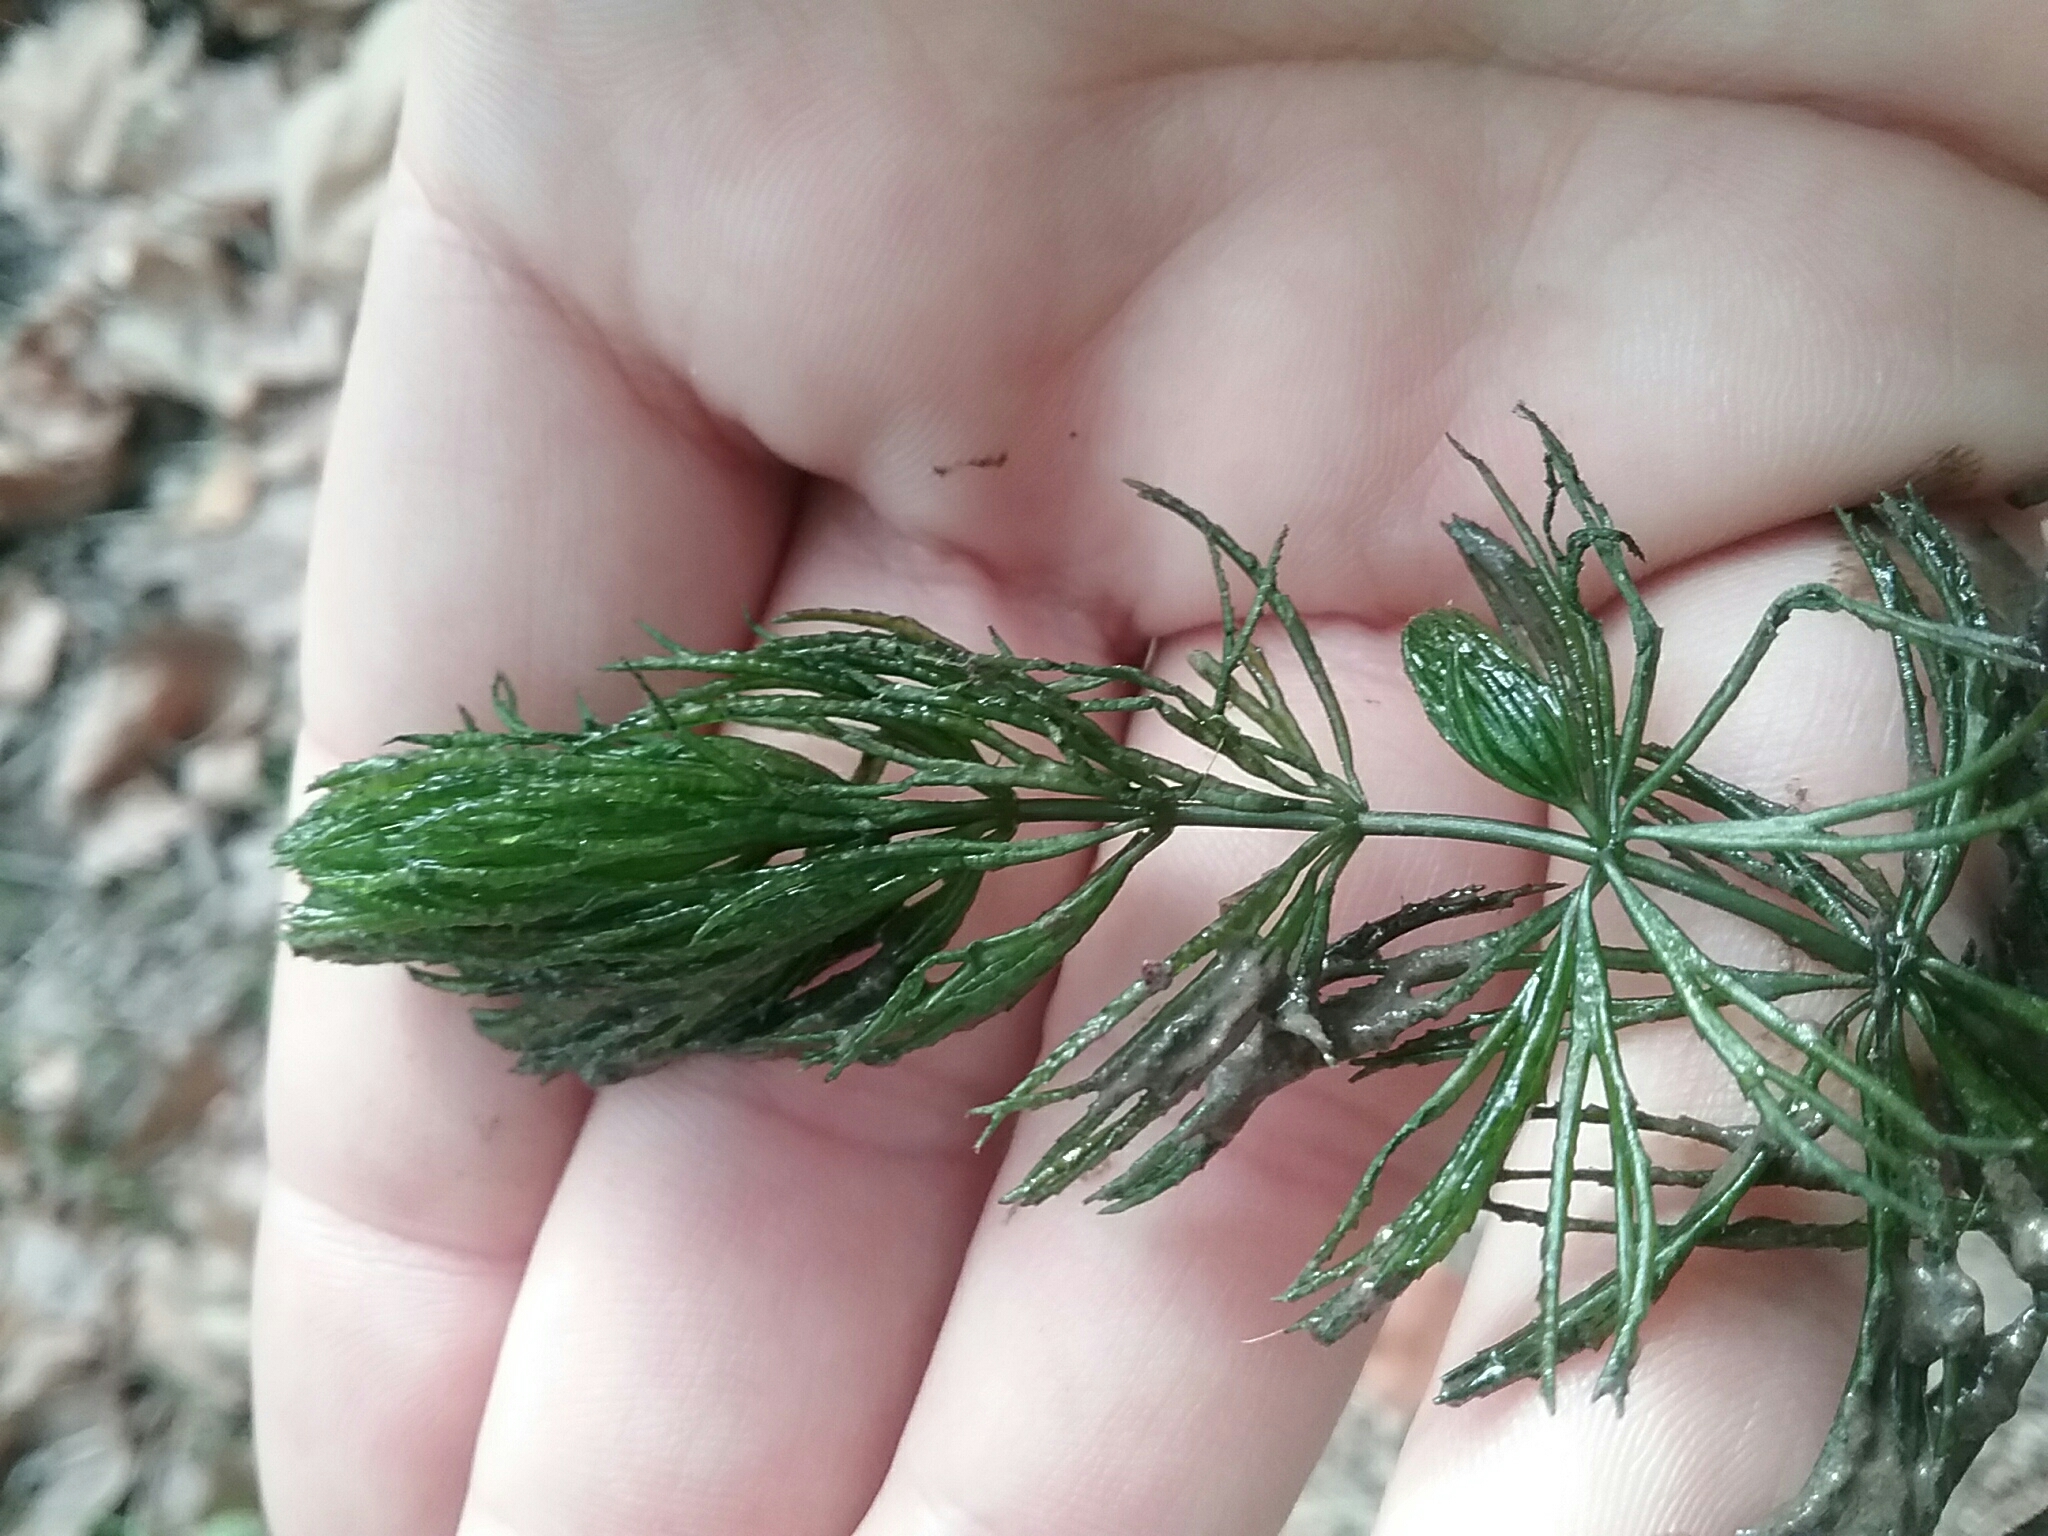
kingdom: Plantae
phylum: Tracheophyta
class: Magnoliopsida
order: Ceratophyllales
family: Ceratophyllaceae
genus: Ceratophyllum
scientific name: Ceratophyllum demersum
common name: Rigid hornwort
